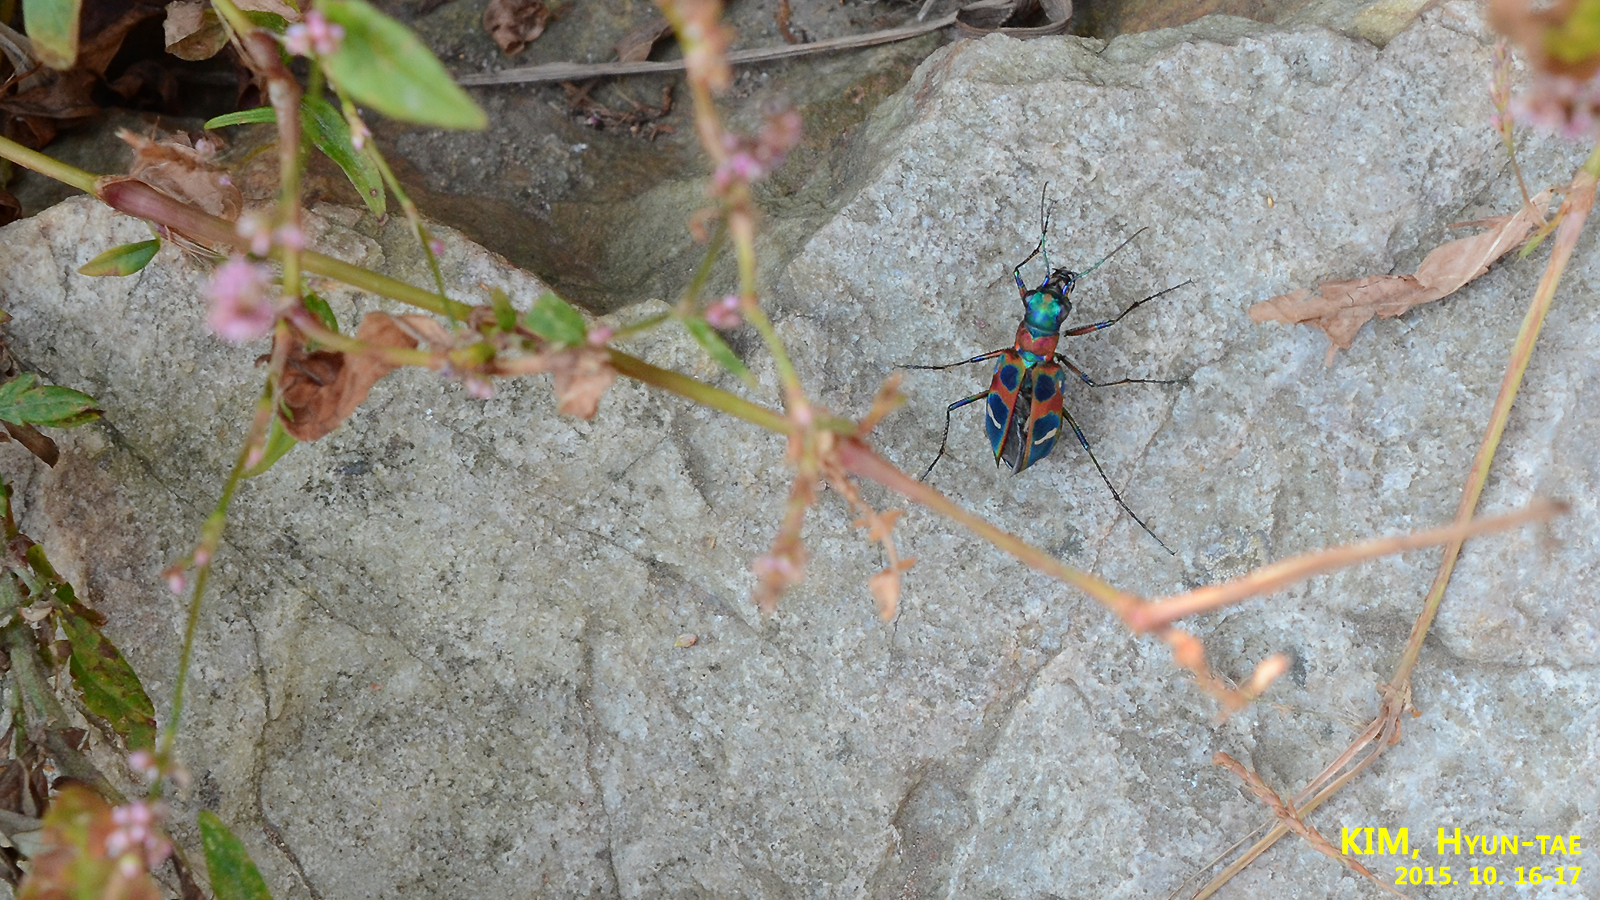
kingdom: Animalia
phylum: Arthropoda
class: Insecta
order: Coleoptera
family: Carabidae
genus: Cicindela
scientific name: Cicindela chinensis
